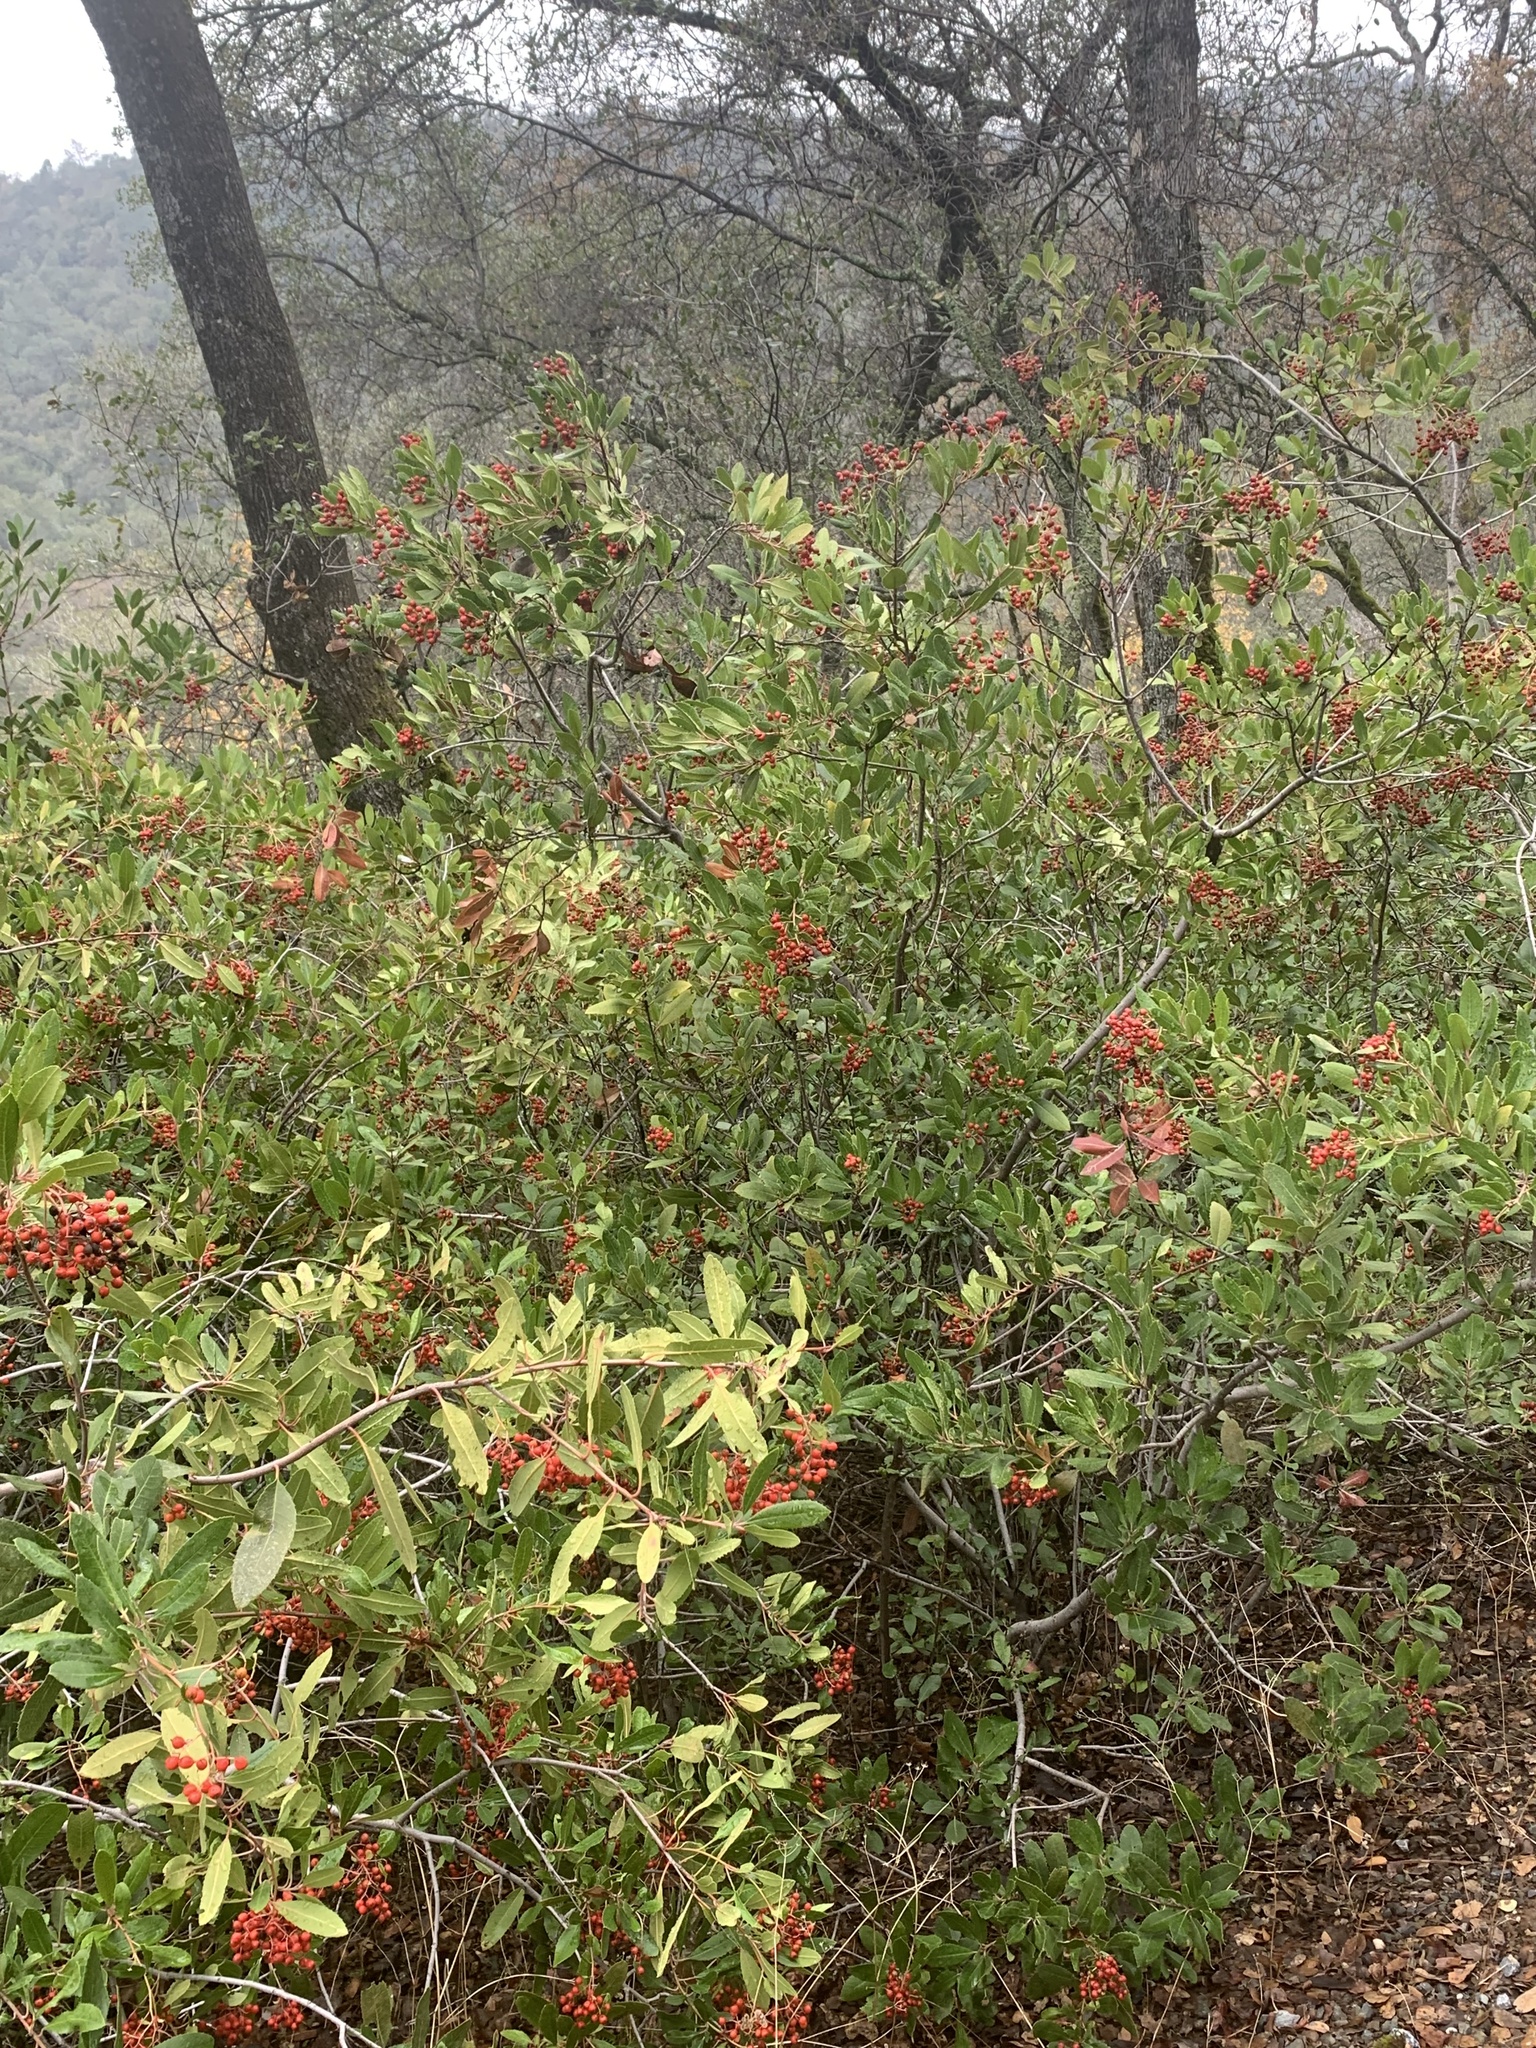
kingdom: Plantae
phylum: Tracheophyta
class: Magnoliopsida
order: Rosales
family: Rosaceae
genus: Heteromeles
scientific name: Heteromeles arbutifolia
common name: California-holly
